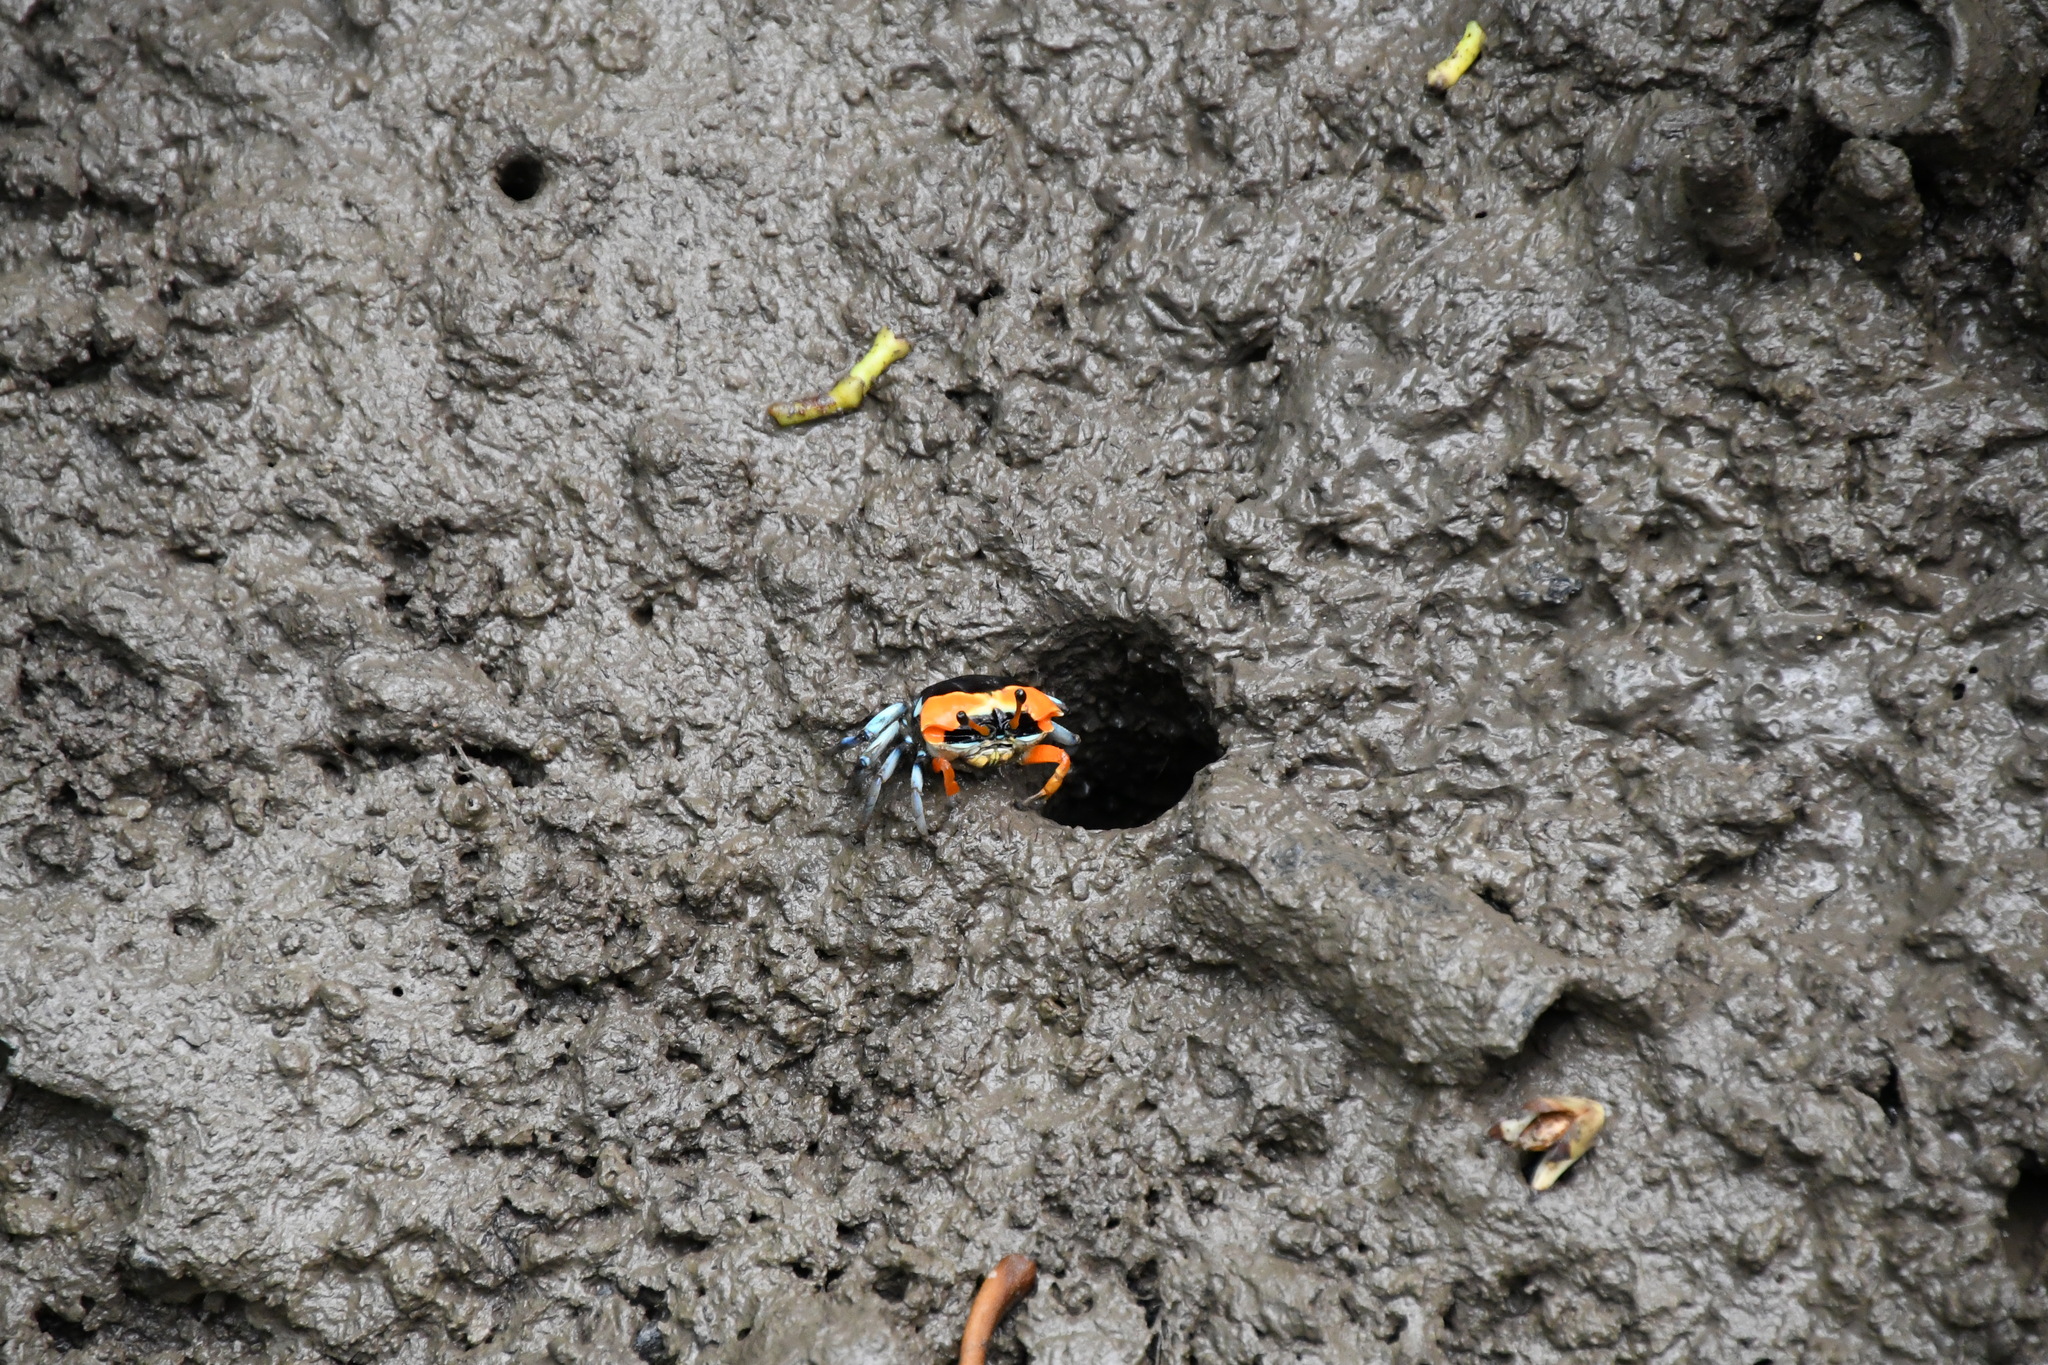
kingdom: Animalia
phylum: Arthropoda
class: Malacostraca
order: Decapoda
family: Ocypodidae
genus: Tubuca
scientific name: Tubuca coarctata
